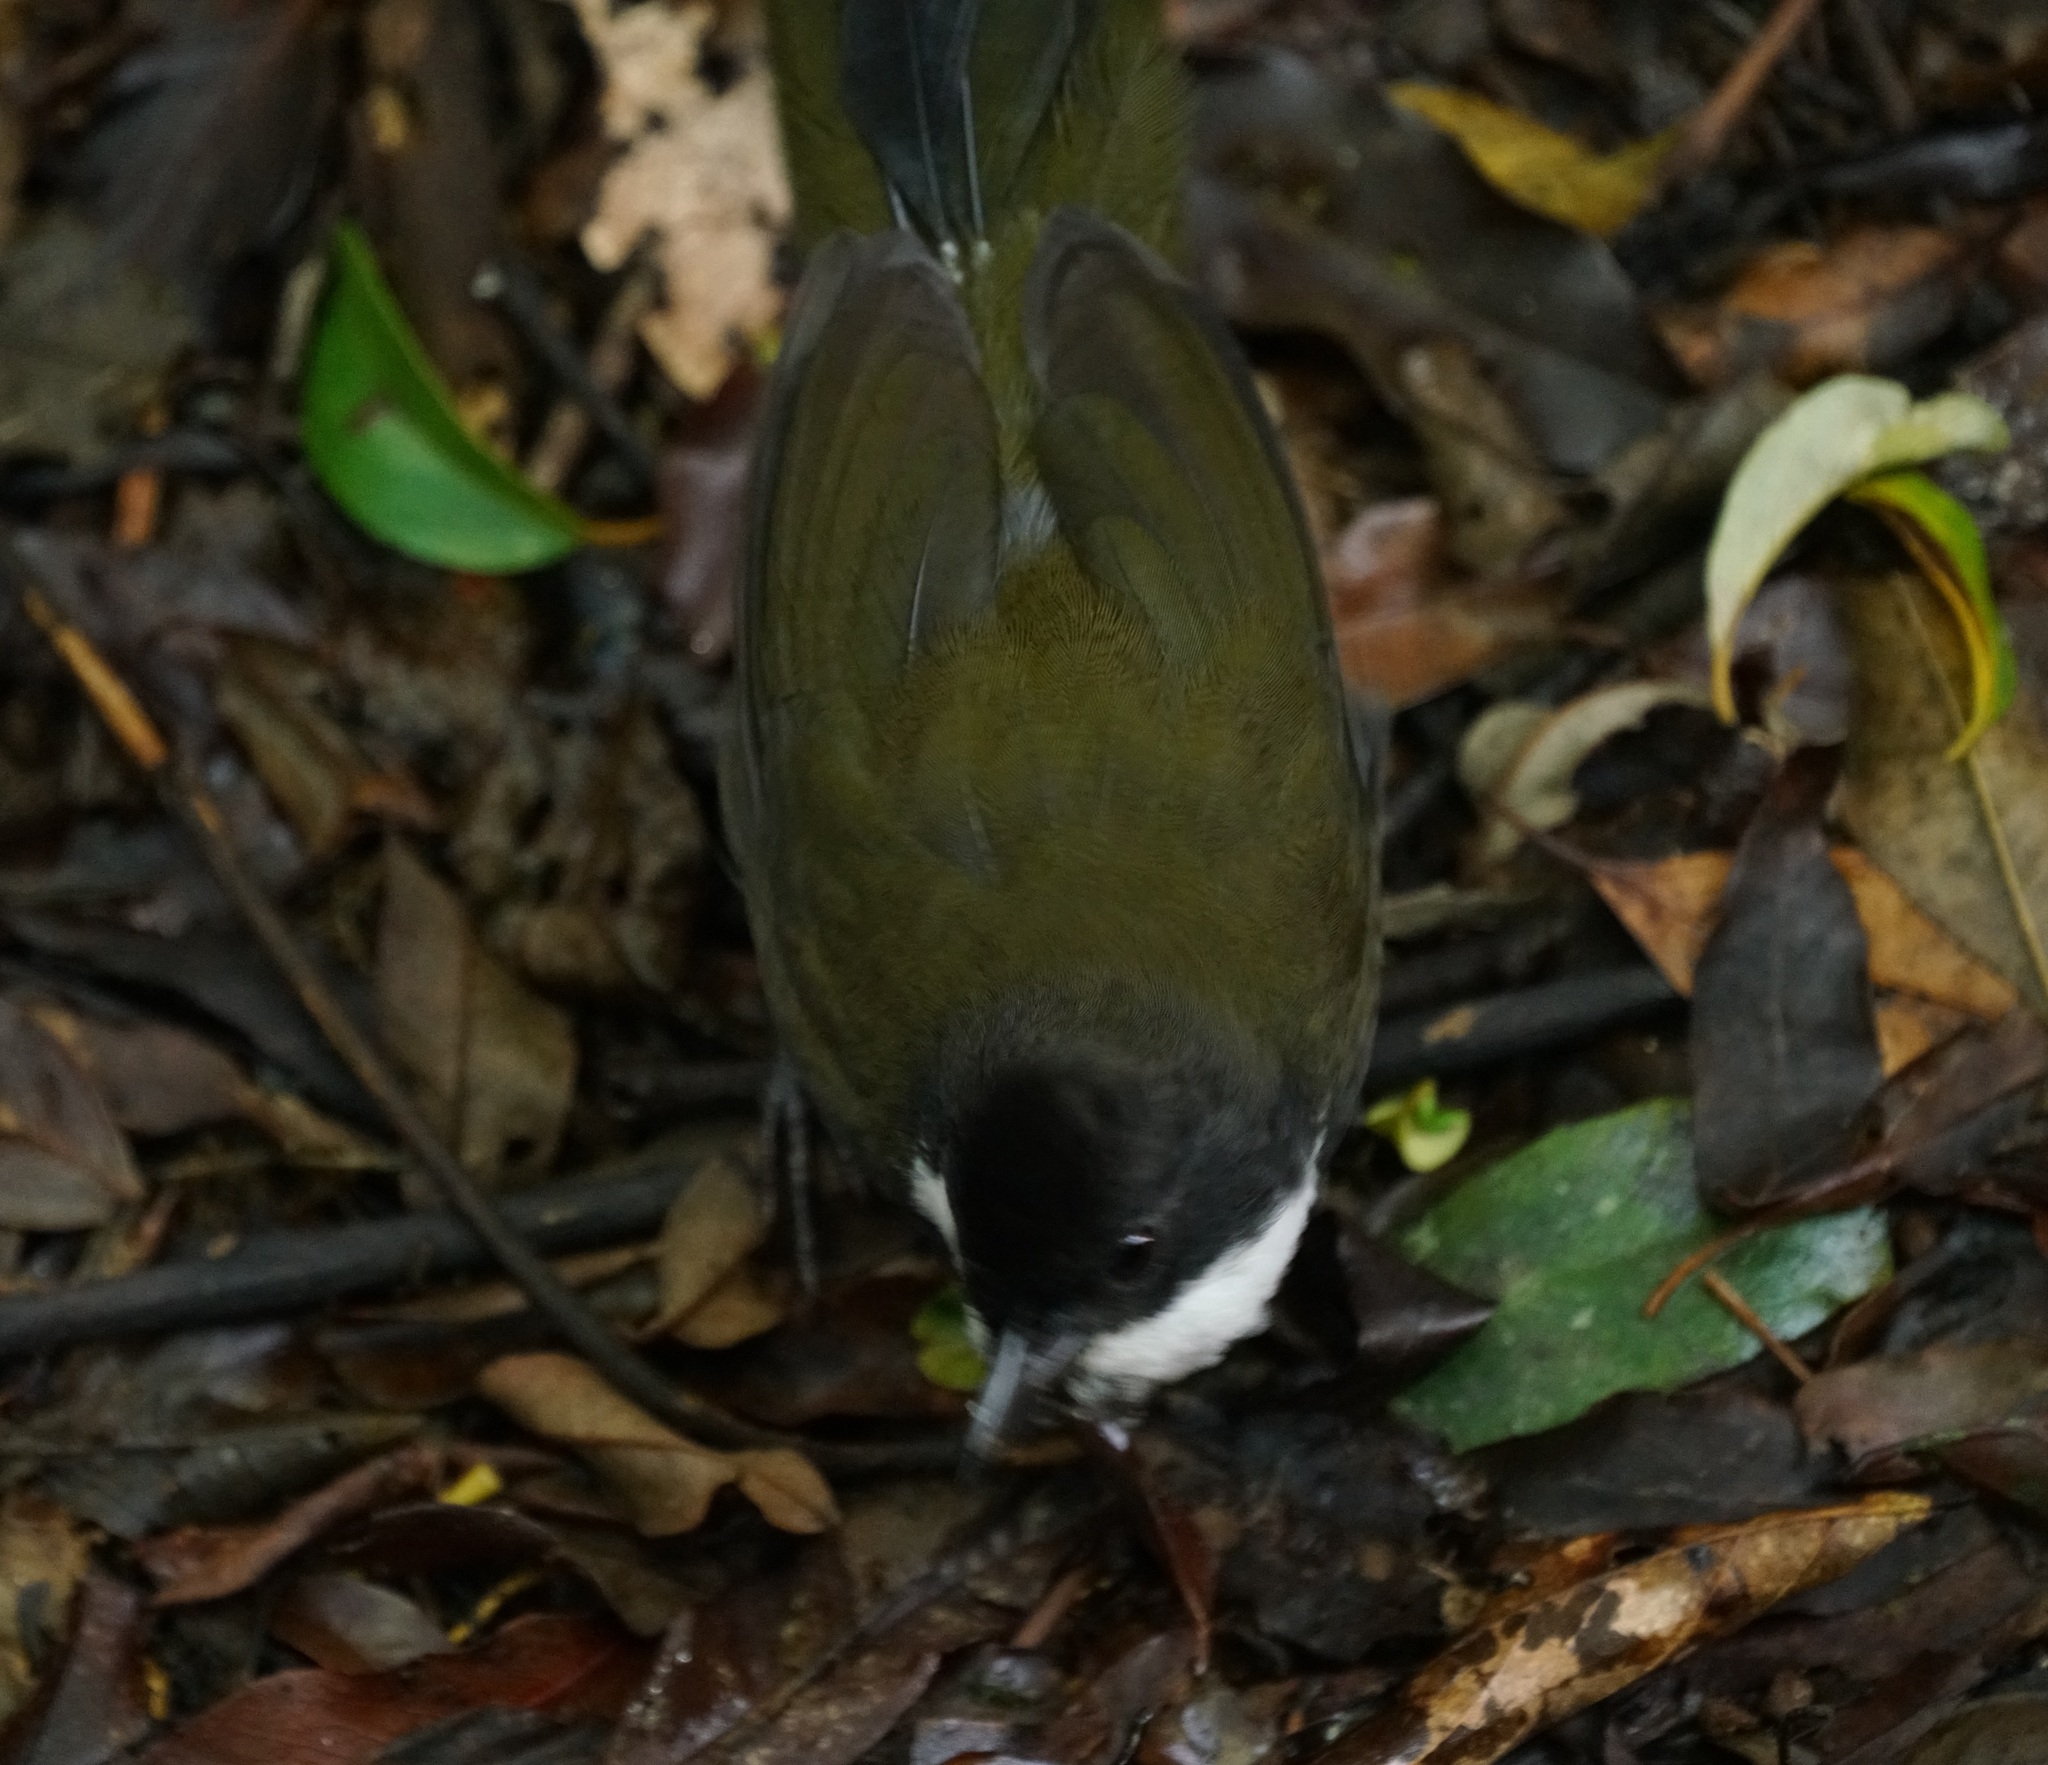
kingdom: Animalia
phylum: Chordata
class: Aves
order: Passeriformes
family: Psophodidae
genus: Psophodes
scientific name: Psophodes olivaceus
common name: Eastern whipbird
